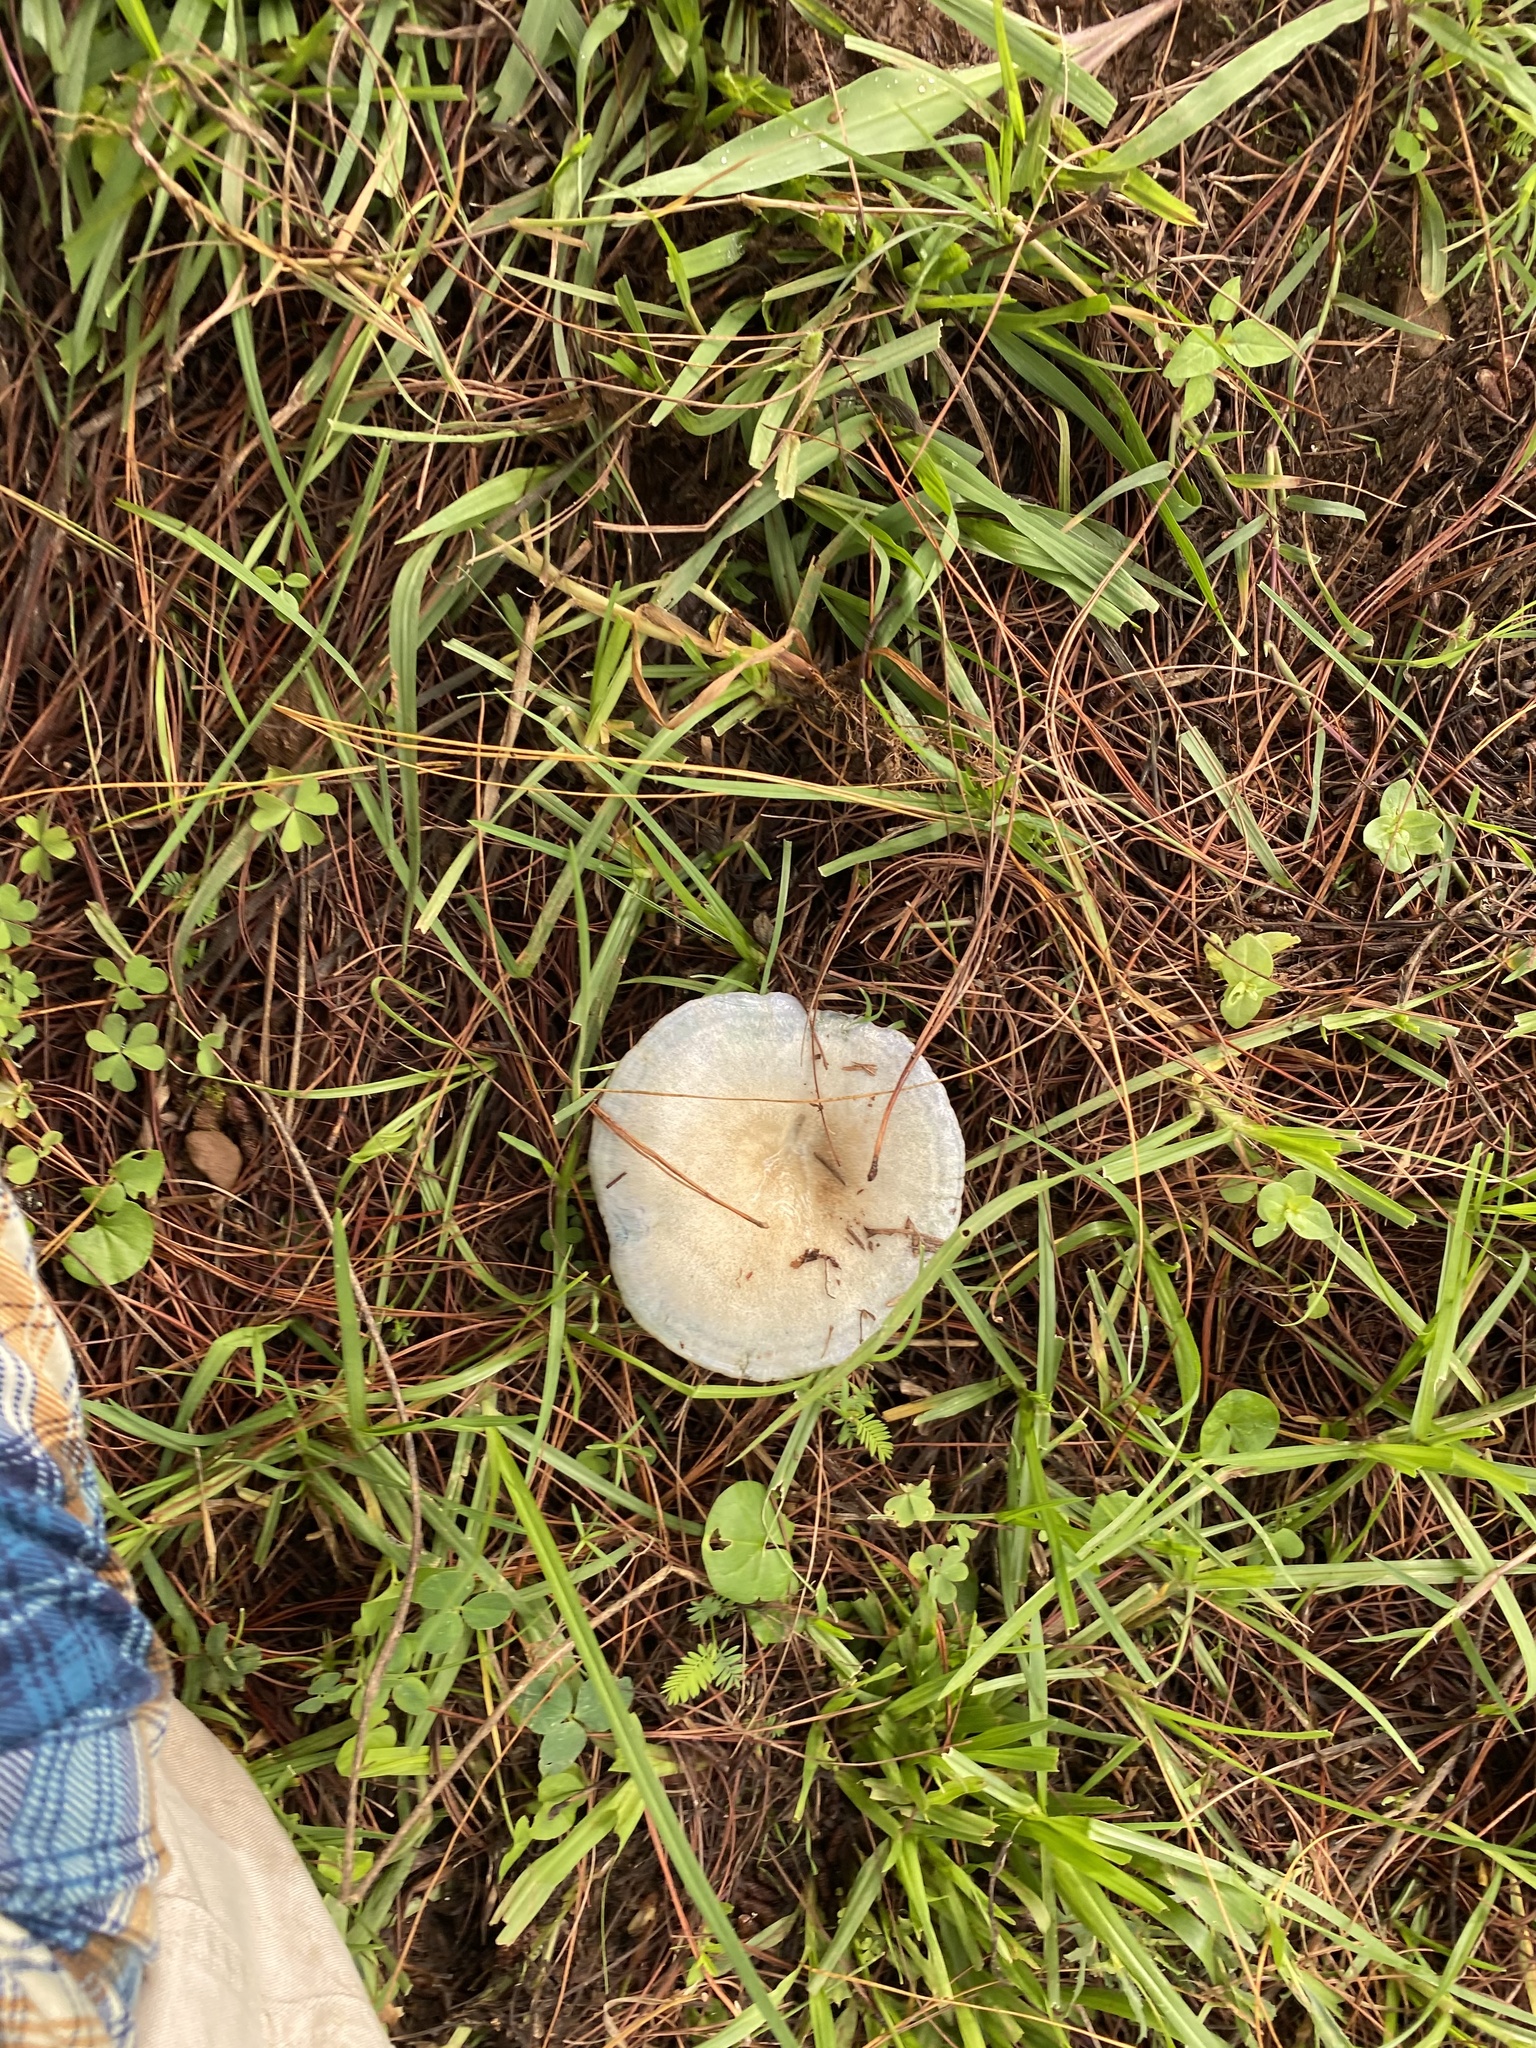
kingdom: Fungi
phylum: Basidiomycota
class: Agaricomycetes
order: Agaricales
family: Hymenogastraceae
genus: Psilocybe
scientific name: Psilocybe cubensis
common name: Golden brownie
